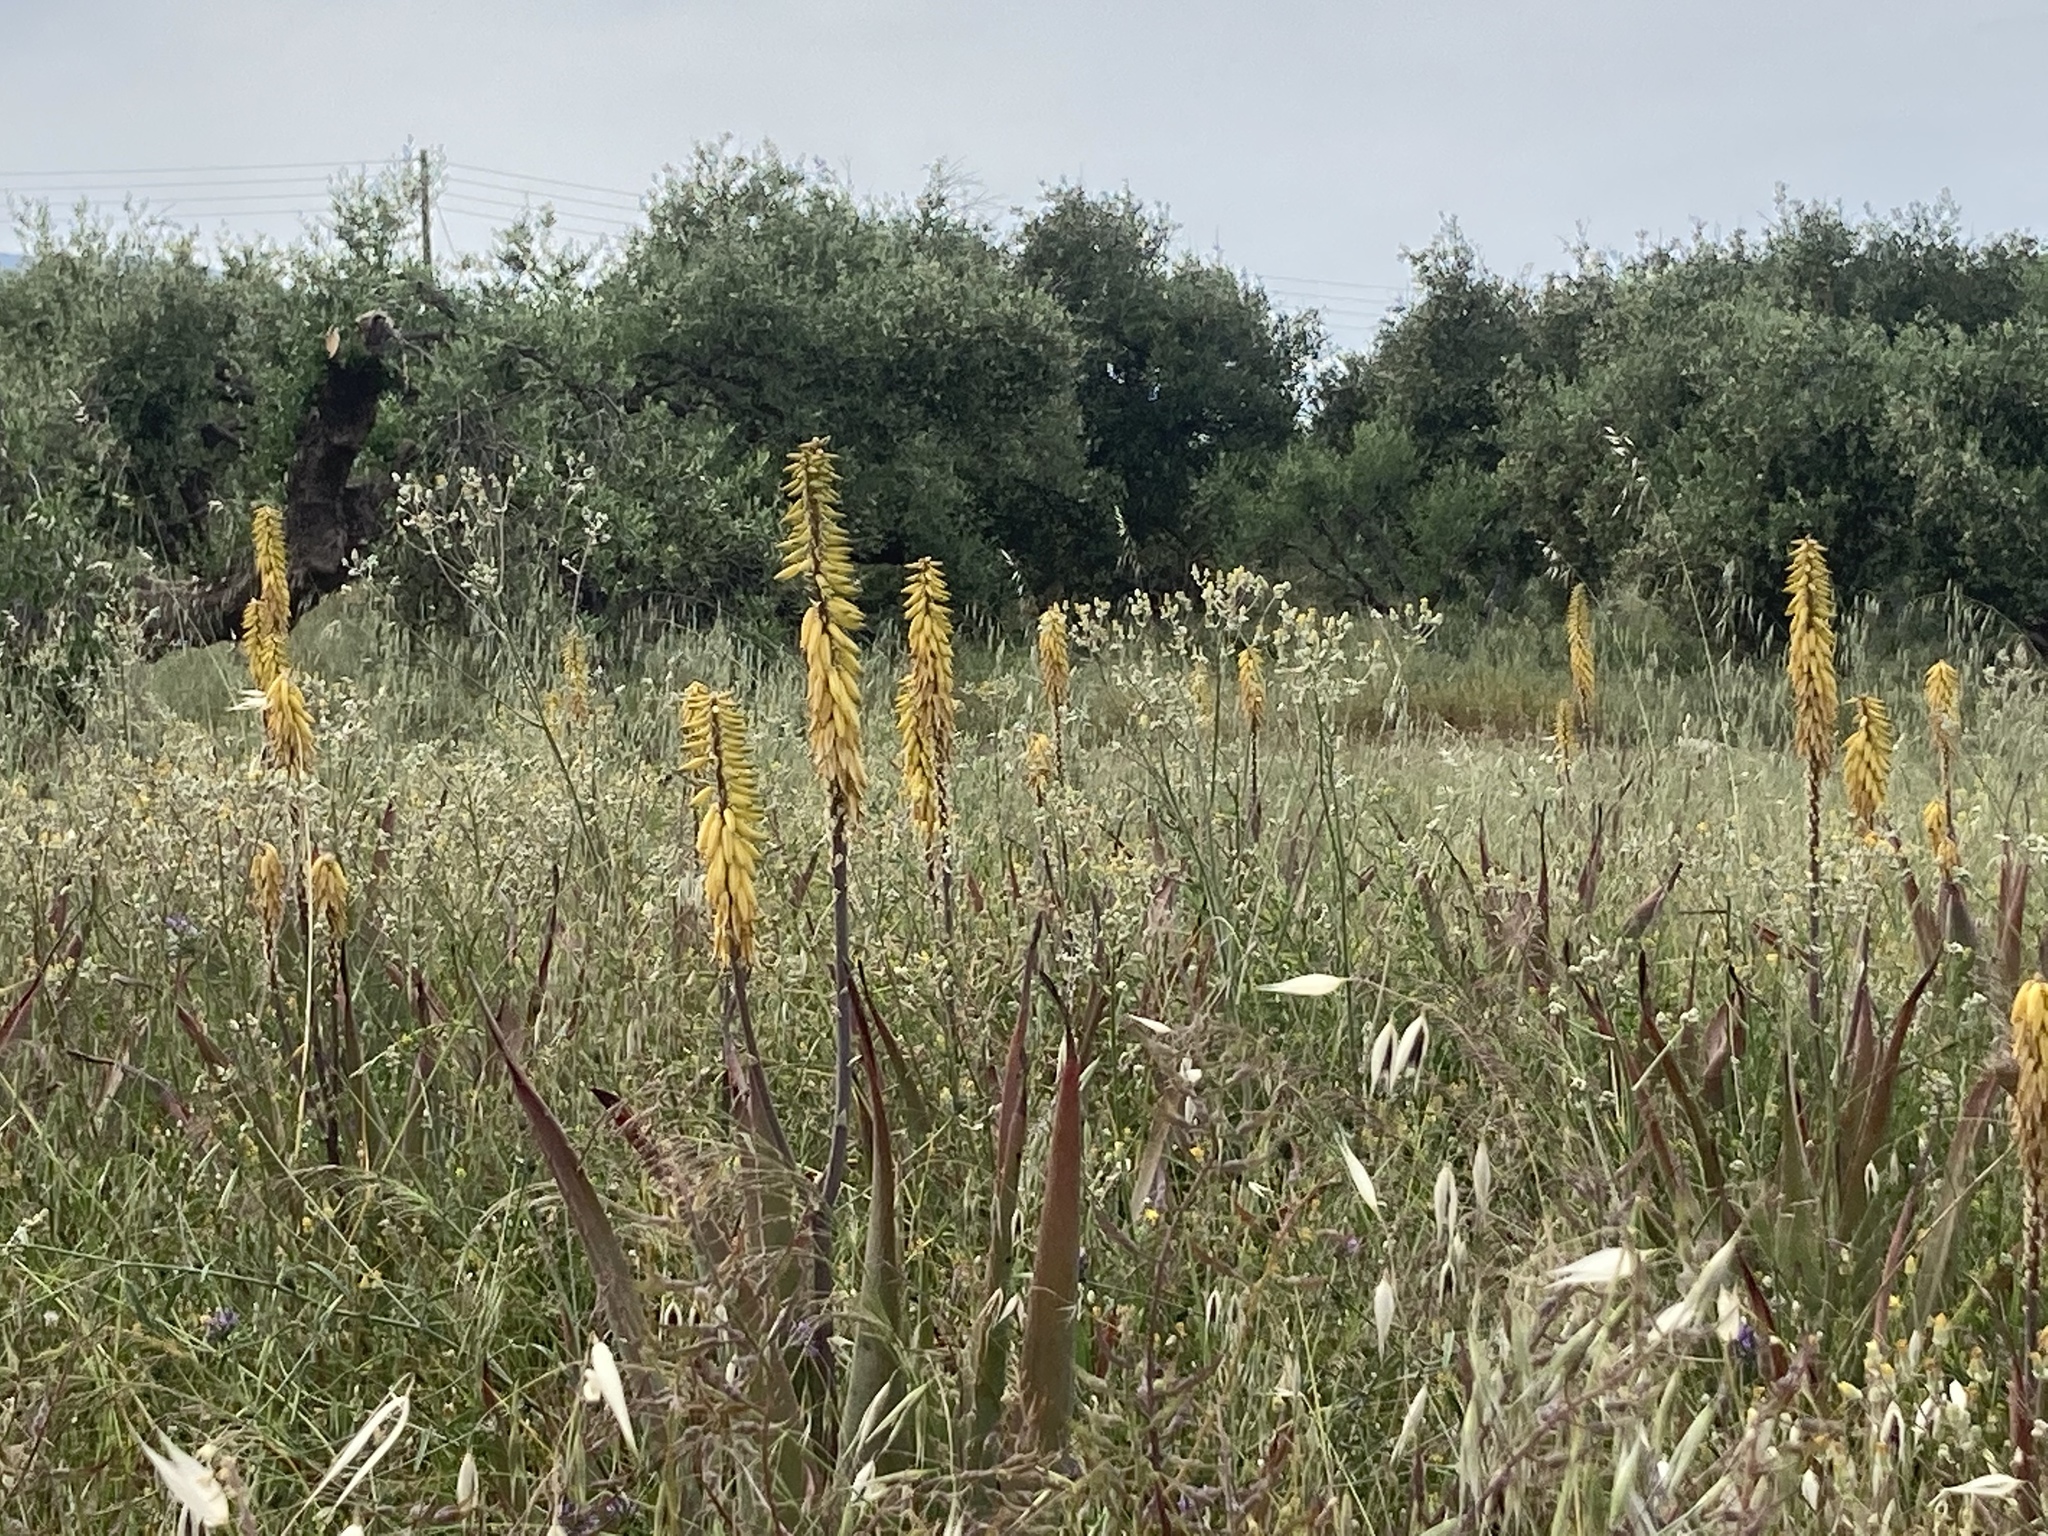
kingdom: Plantae
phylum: Tracheophyta
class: Liliopsida
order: Asparagales
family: Asphodelaceae
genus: Aloe
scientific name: Aloe vera
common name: Barbados aloe
